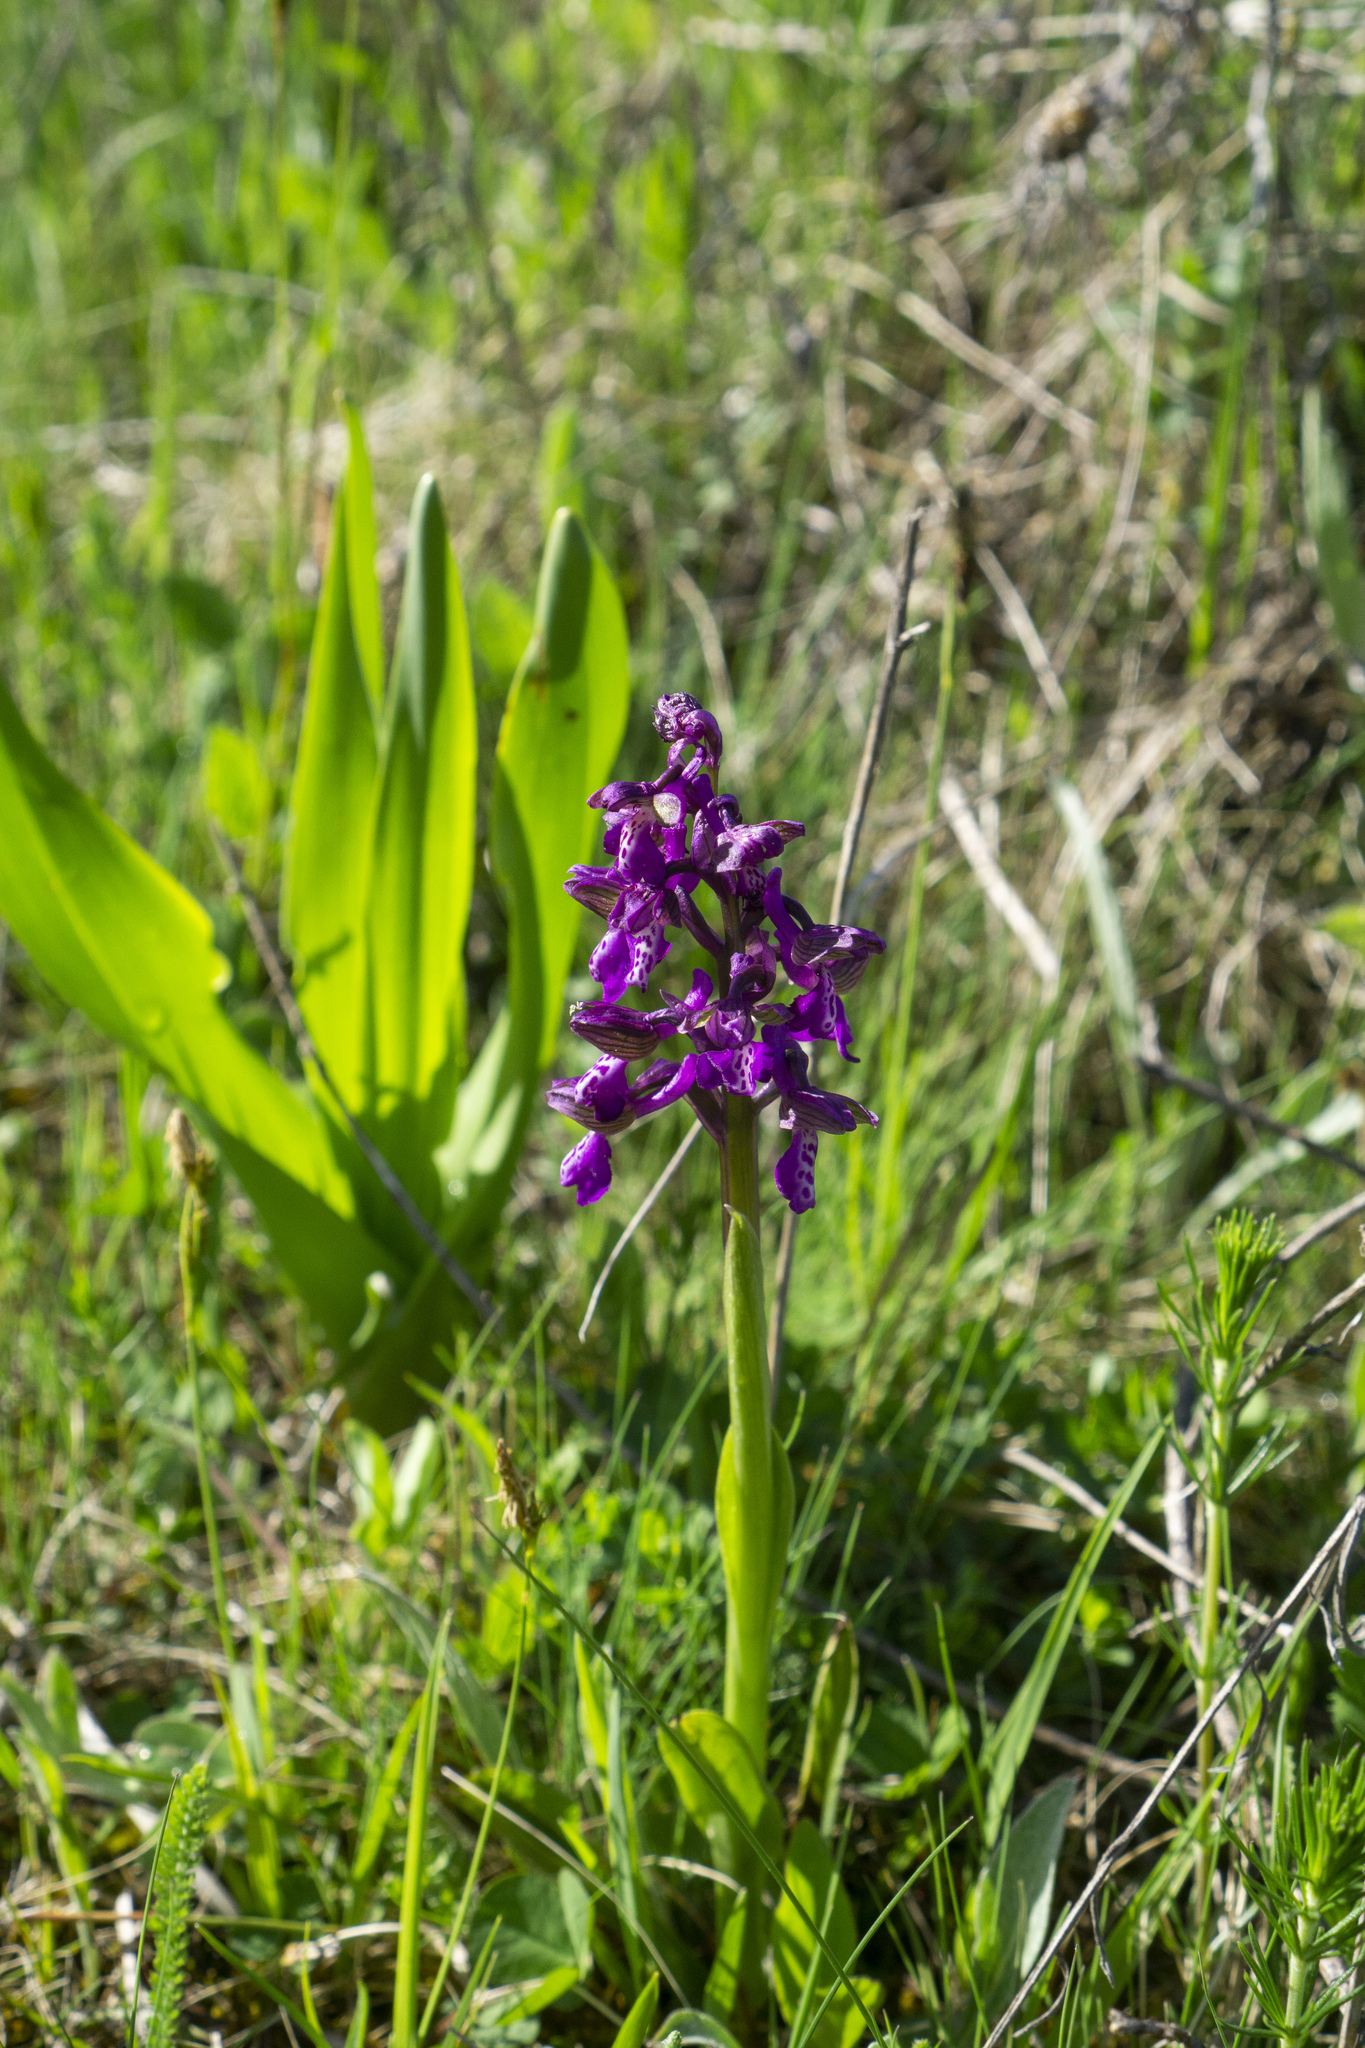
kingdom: Plantae
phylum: Tracheophyta
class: Liliopsida
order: Asparagales
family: Orchidaceae
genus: Anacamptis
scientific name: Anacamptis morio
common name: Green-winged orchid
